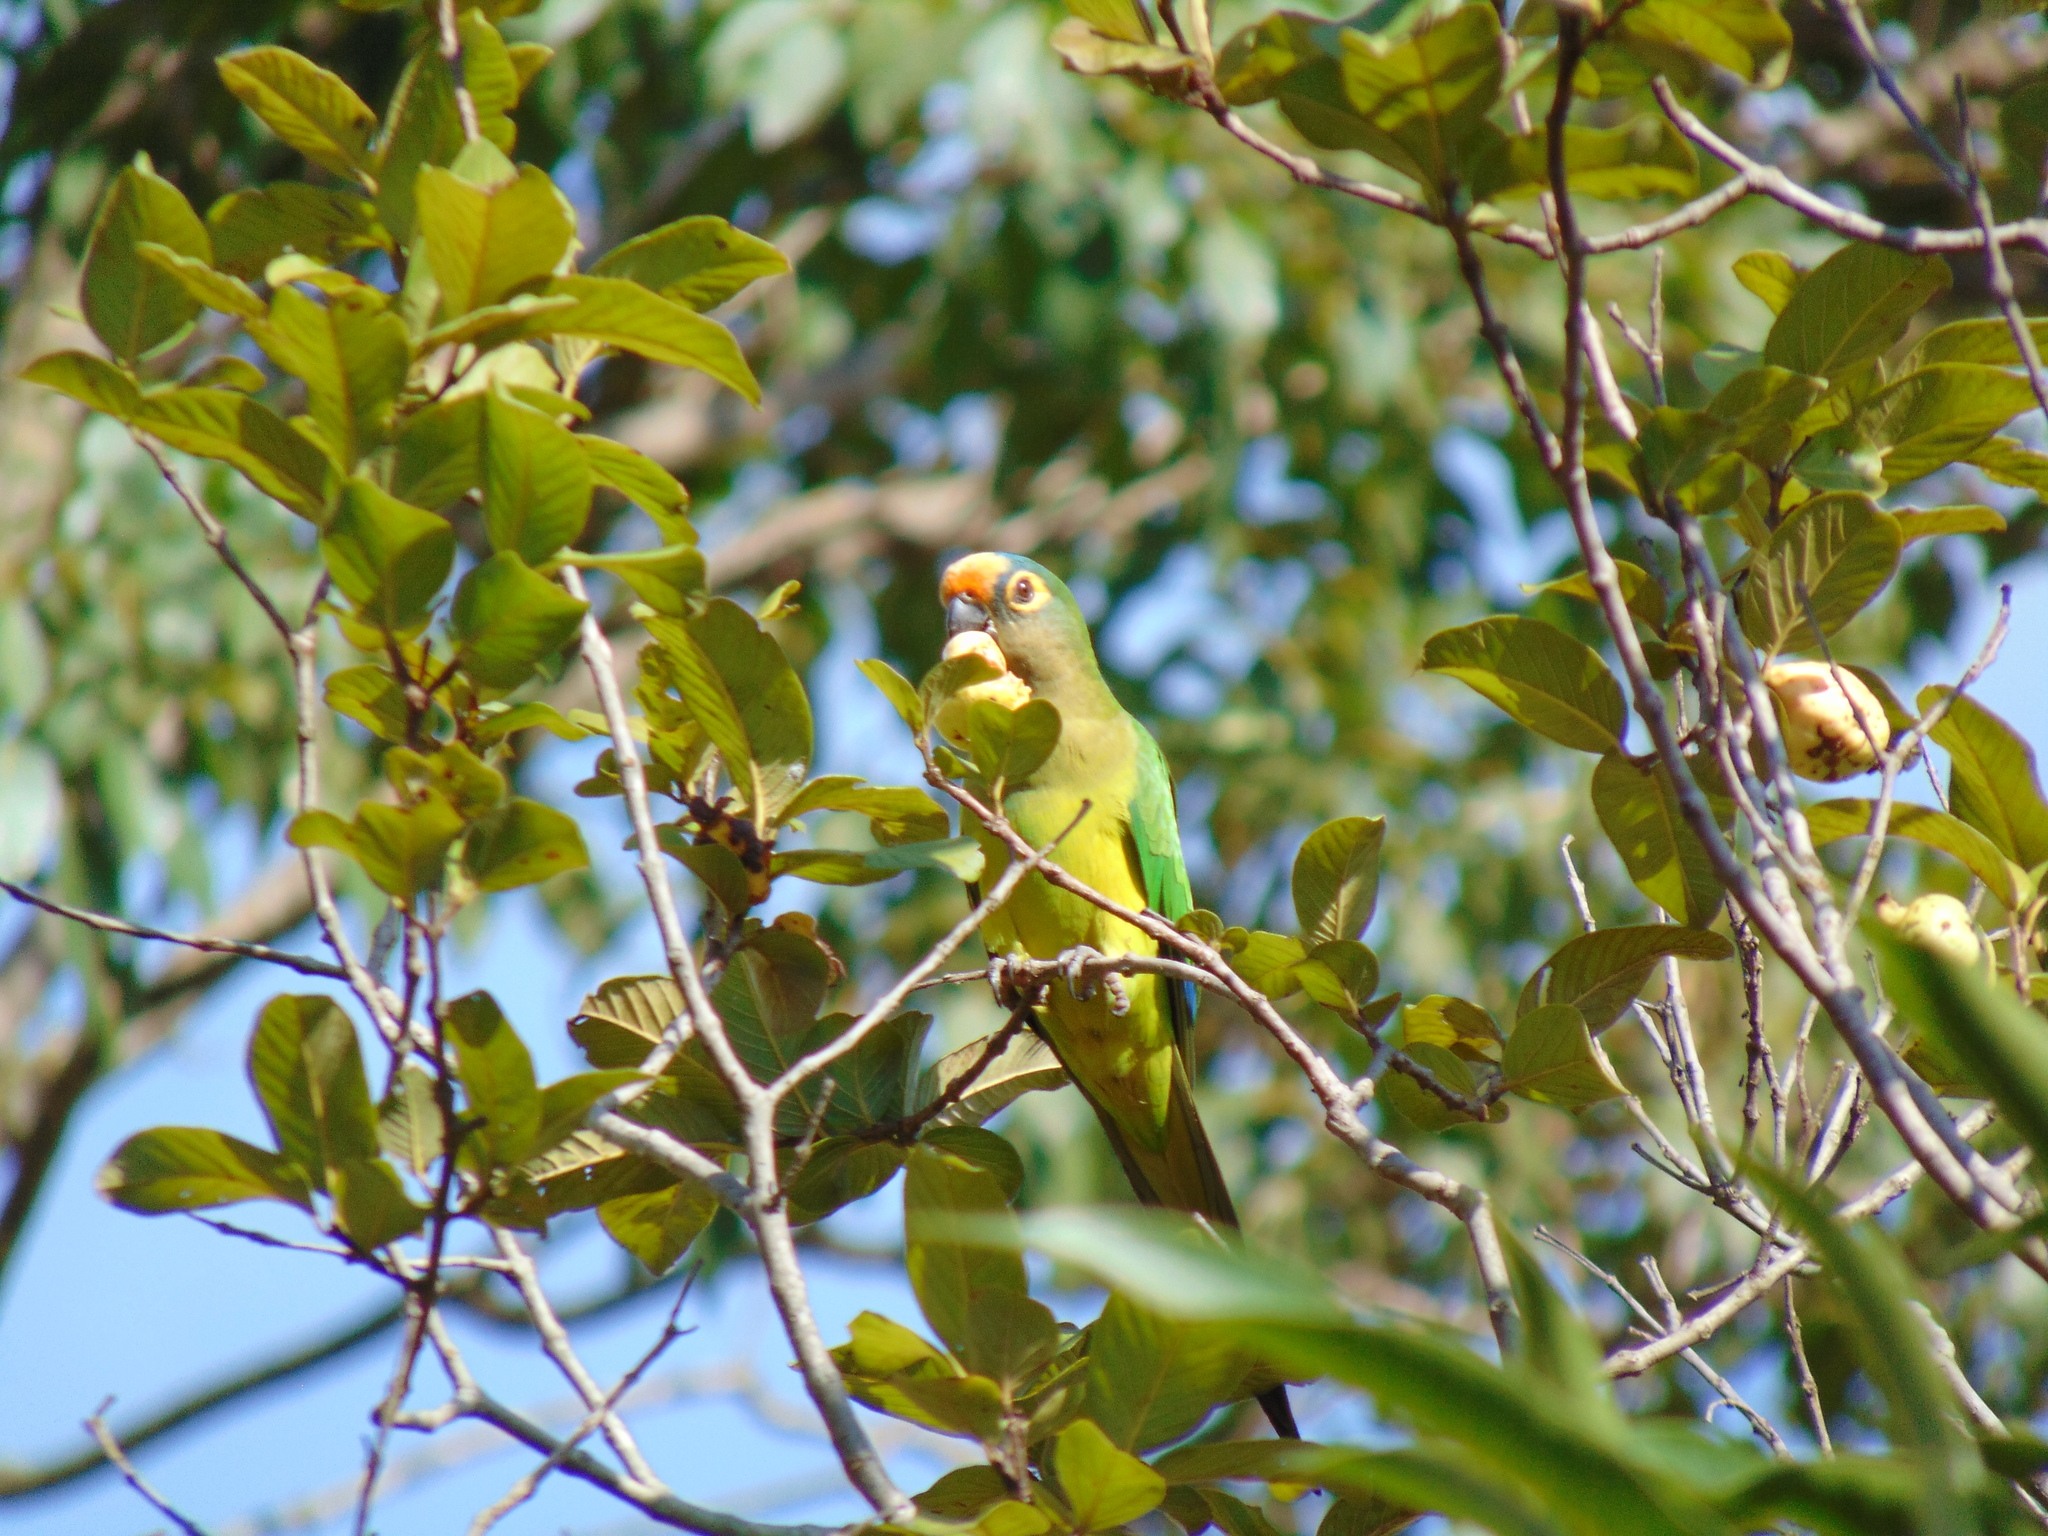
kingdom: Animalia
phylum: Chordata
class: Aves
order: Psittaciformes
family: Psittacidae
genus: Aratinga
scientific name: Aratinga aurea
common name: Peach-fronted parakeet
